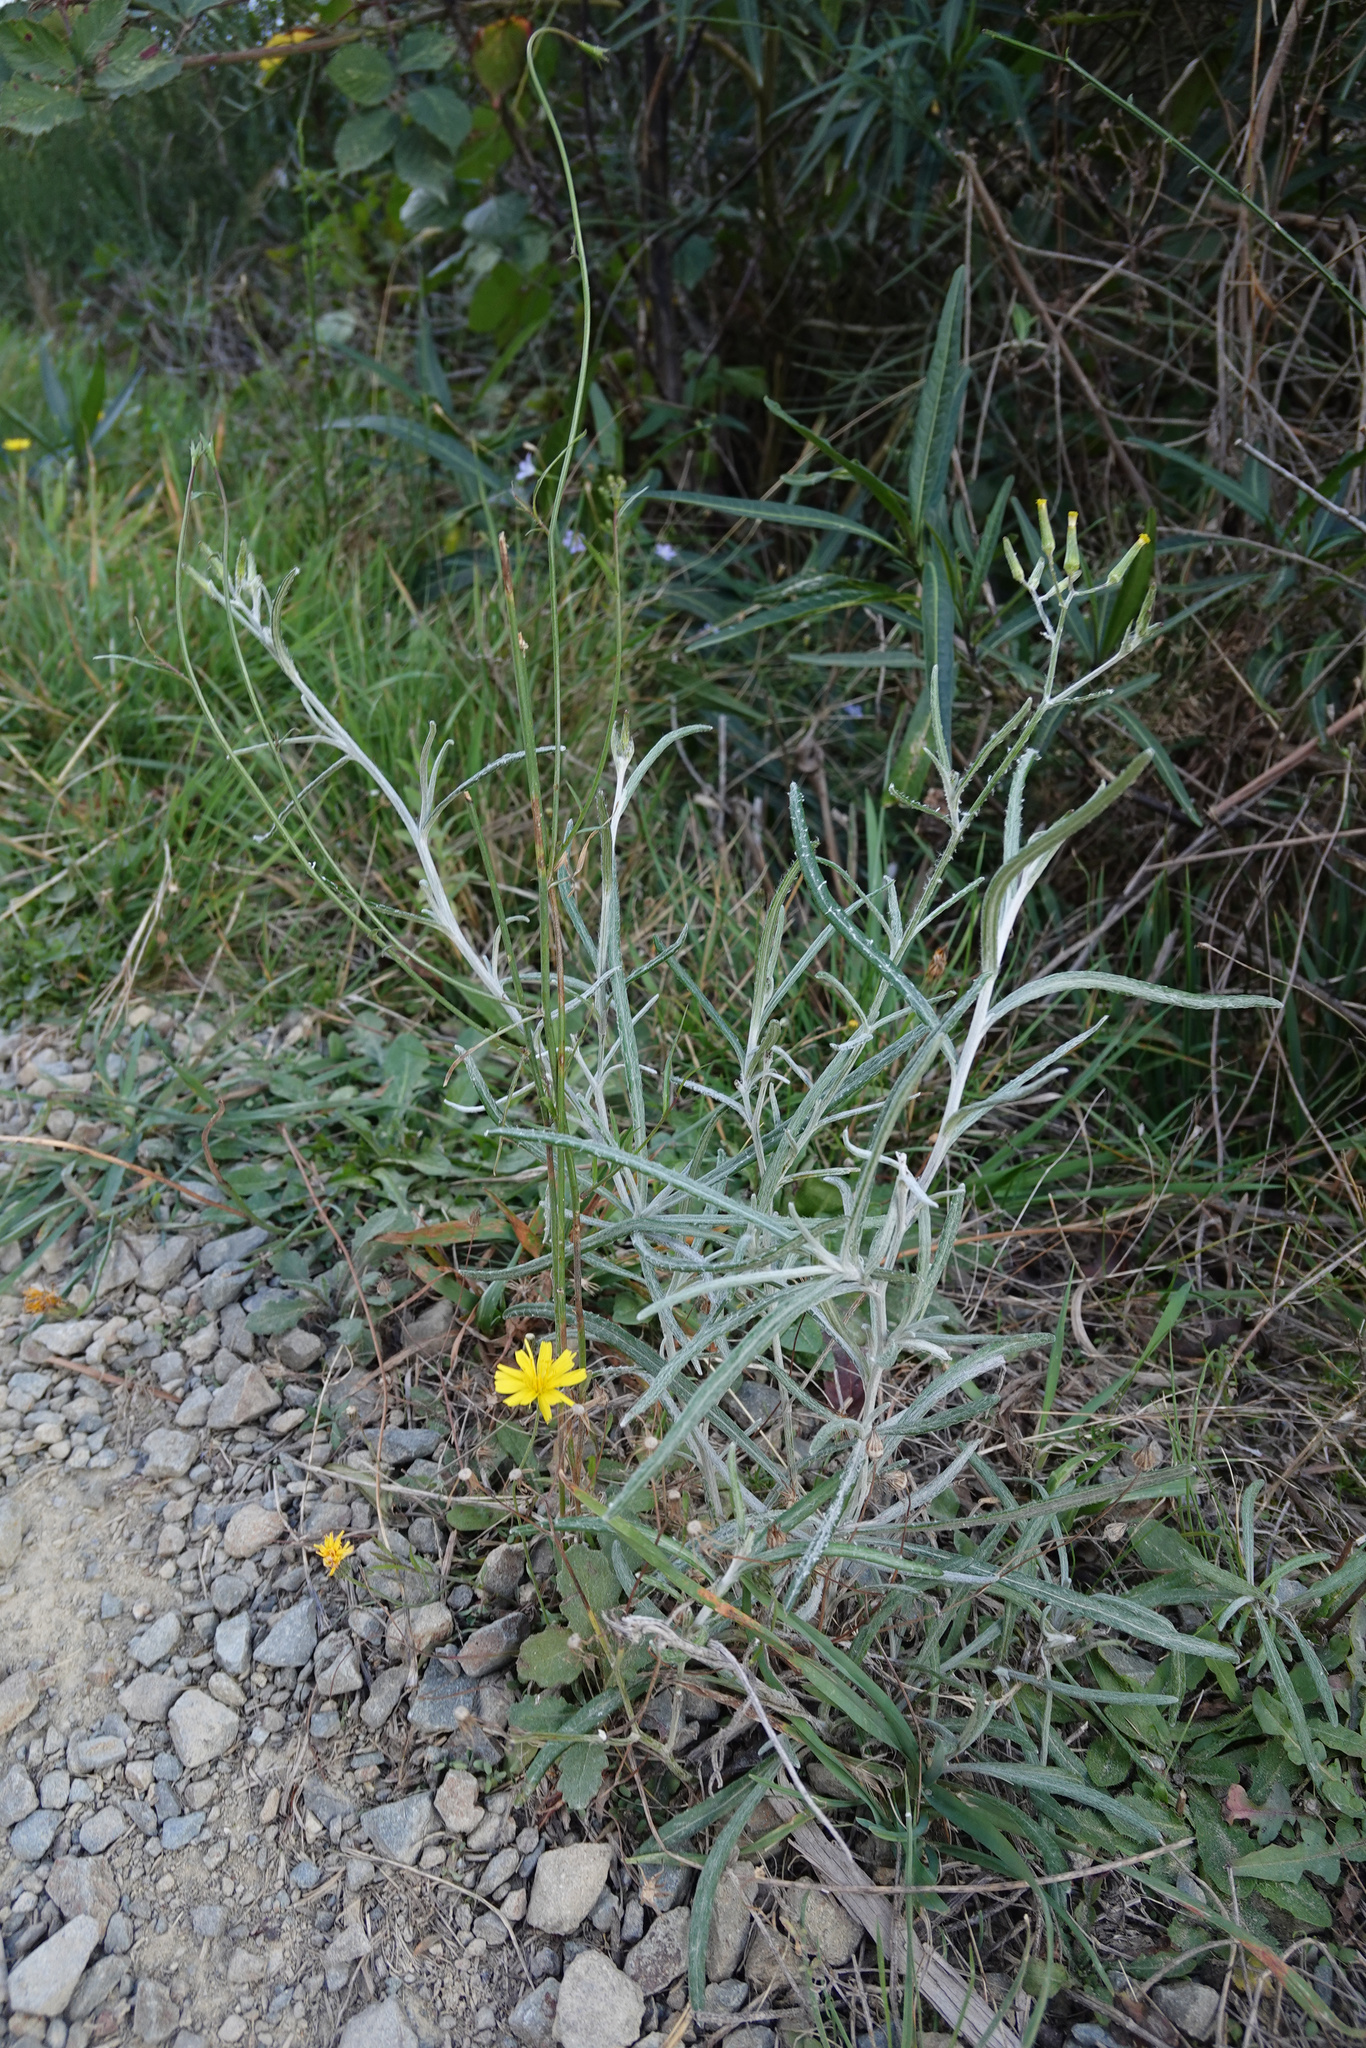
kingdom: Plantae
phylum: Tracheophyta
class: Magnoliopsida
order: Asterales
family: Asteraceae
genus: Senecio
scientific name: Senecio quadridentatus
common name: Cotton fireweed
